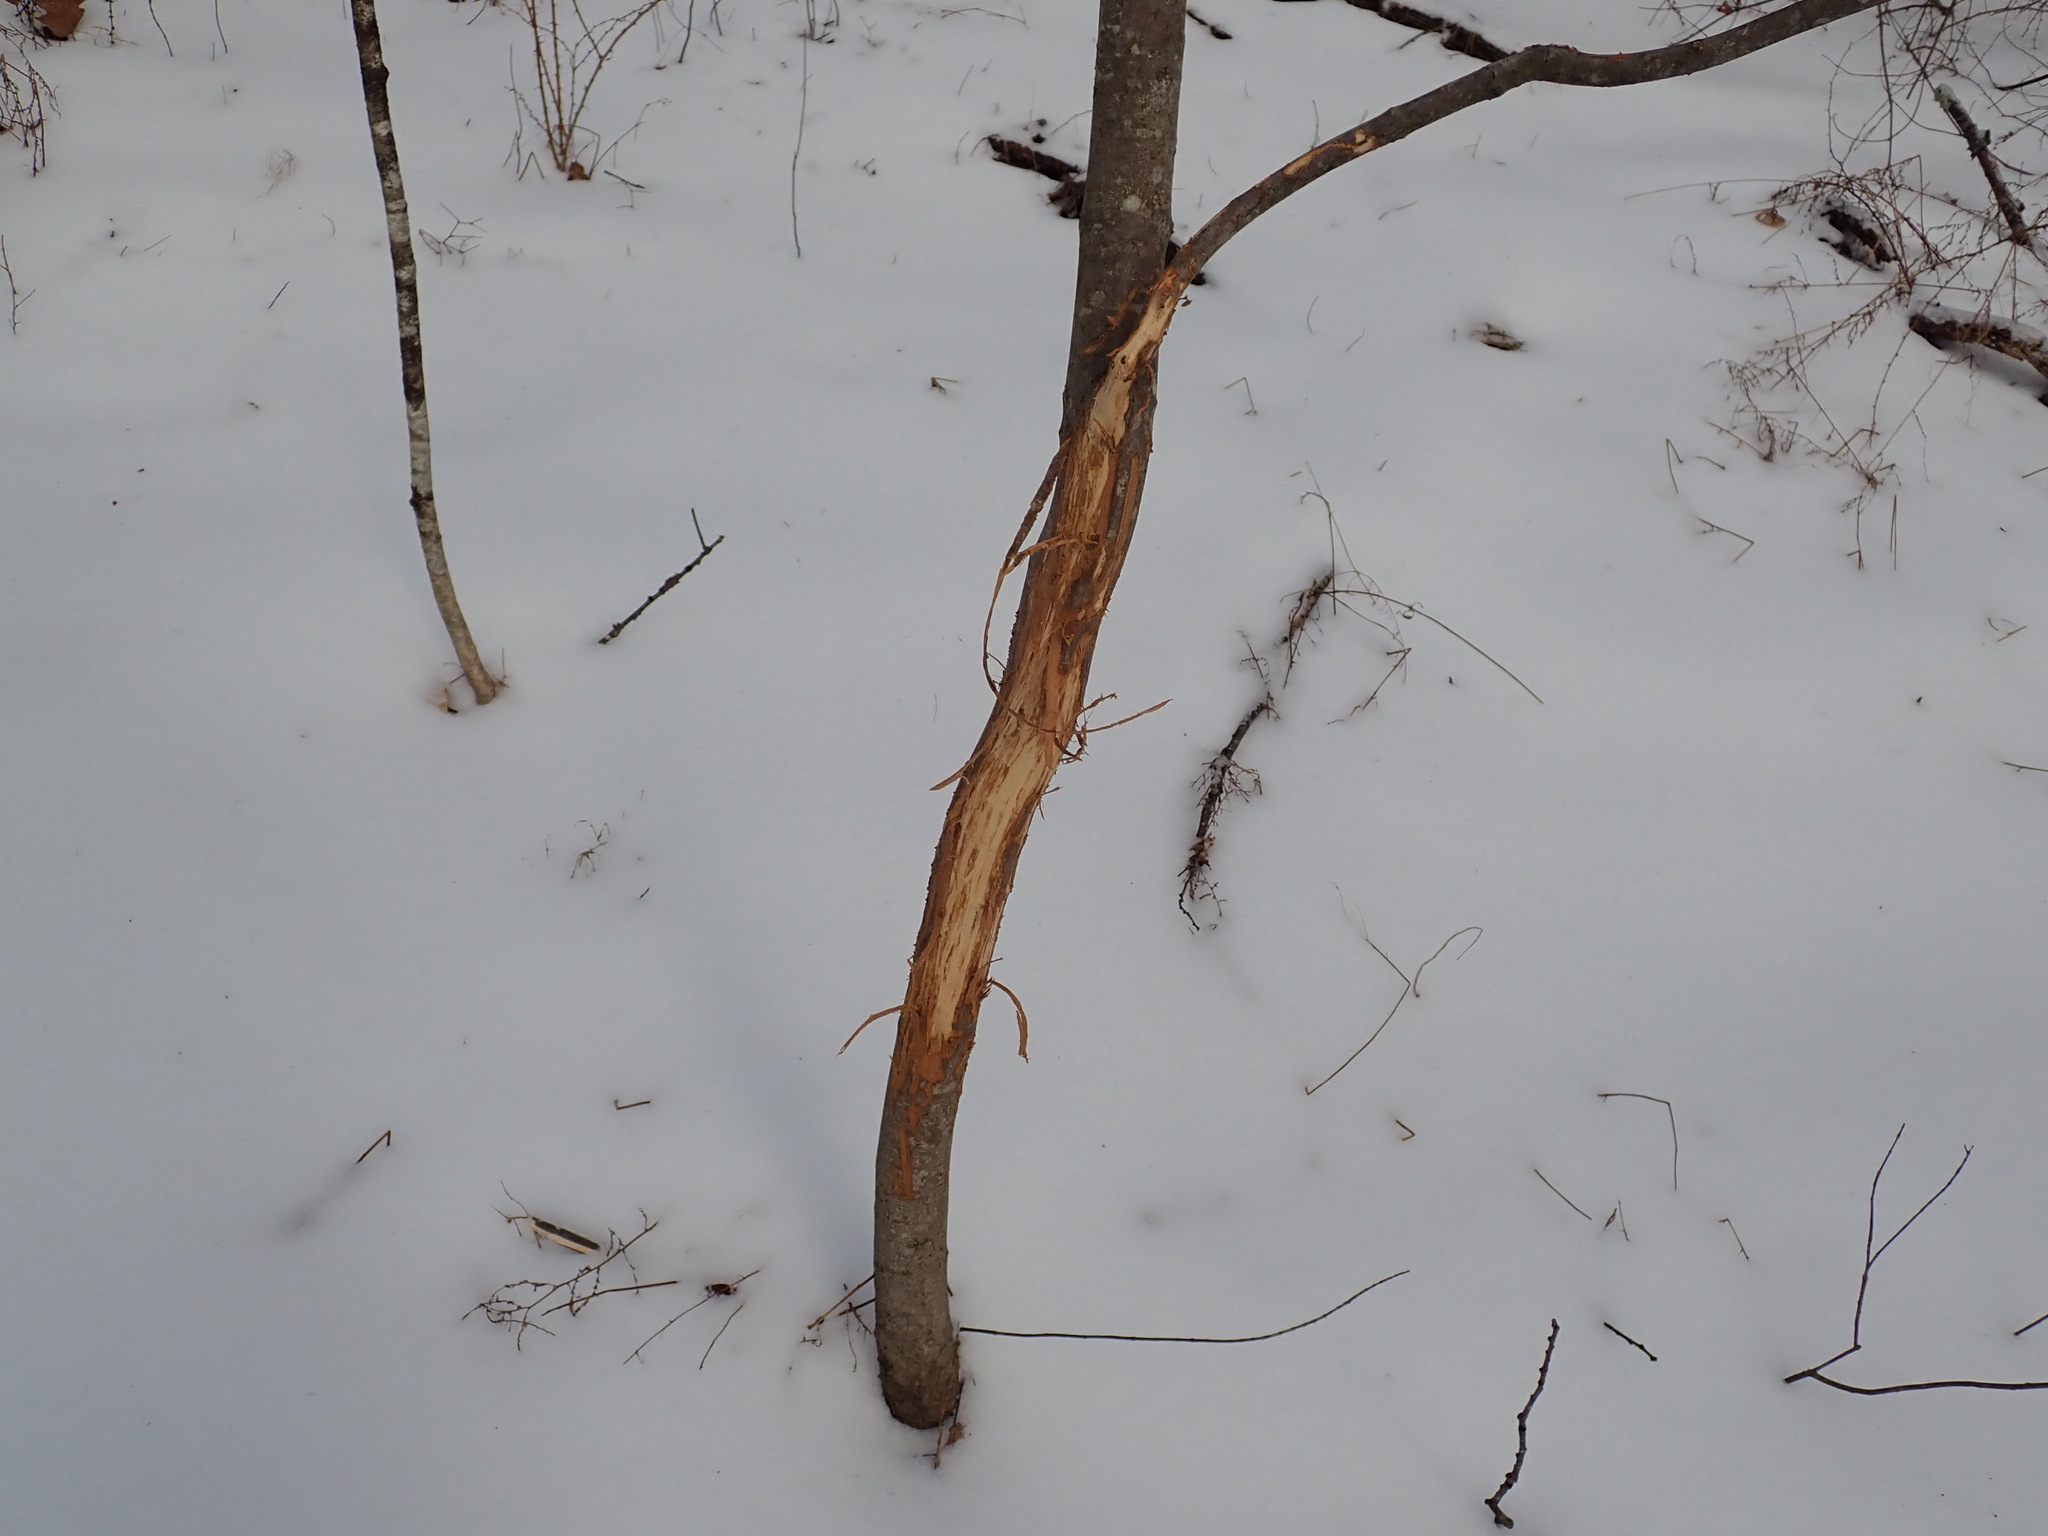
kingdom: Animalia
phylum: Chordata
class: Mammalia
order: Artiodactyla
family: Cervidae
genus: Odocoileus
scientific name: Odocoileus virginianus
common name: White-tailed deer
